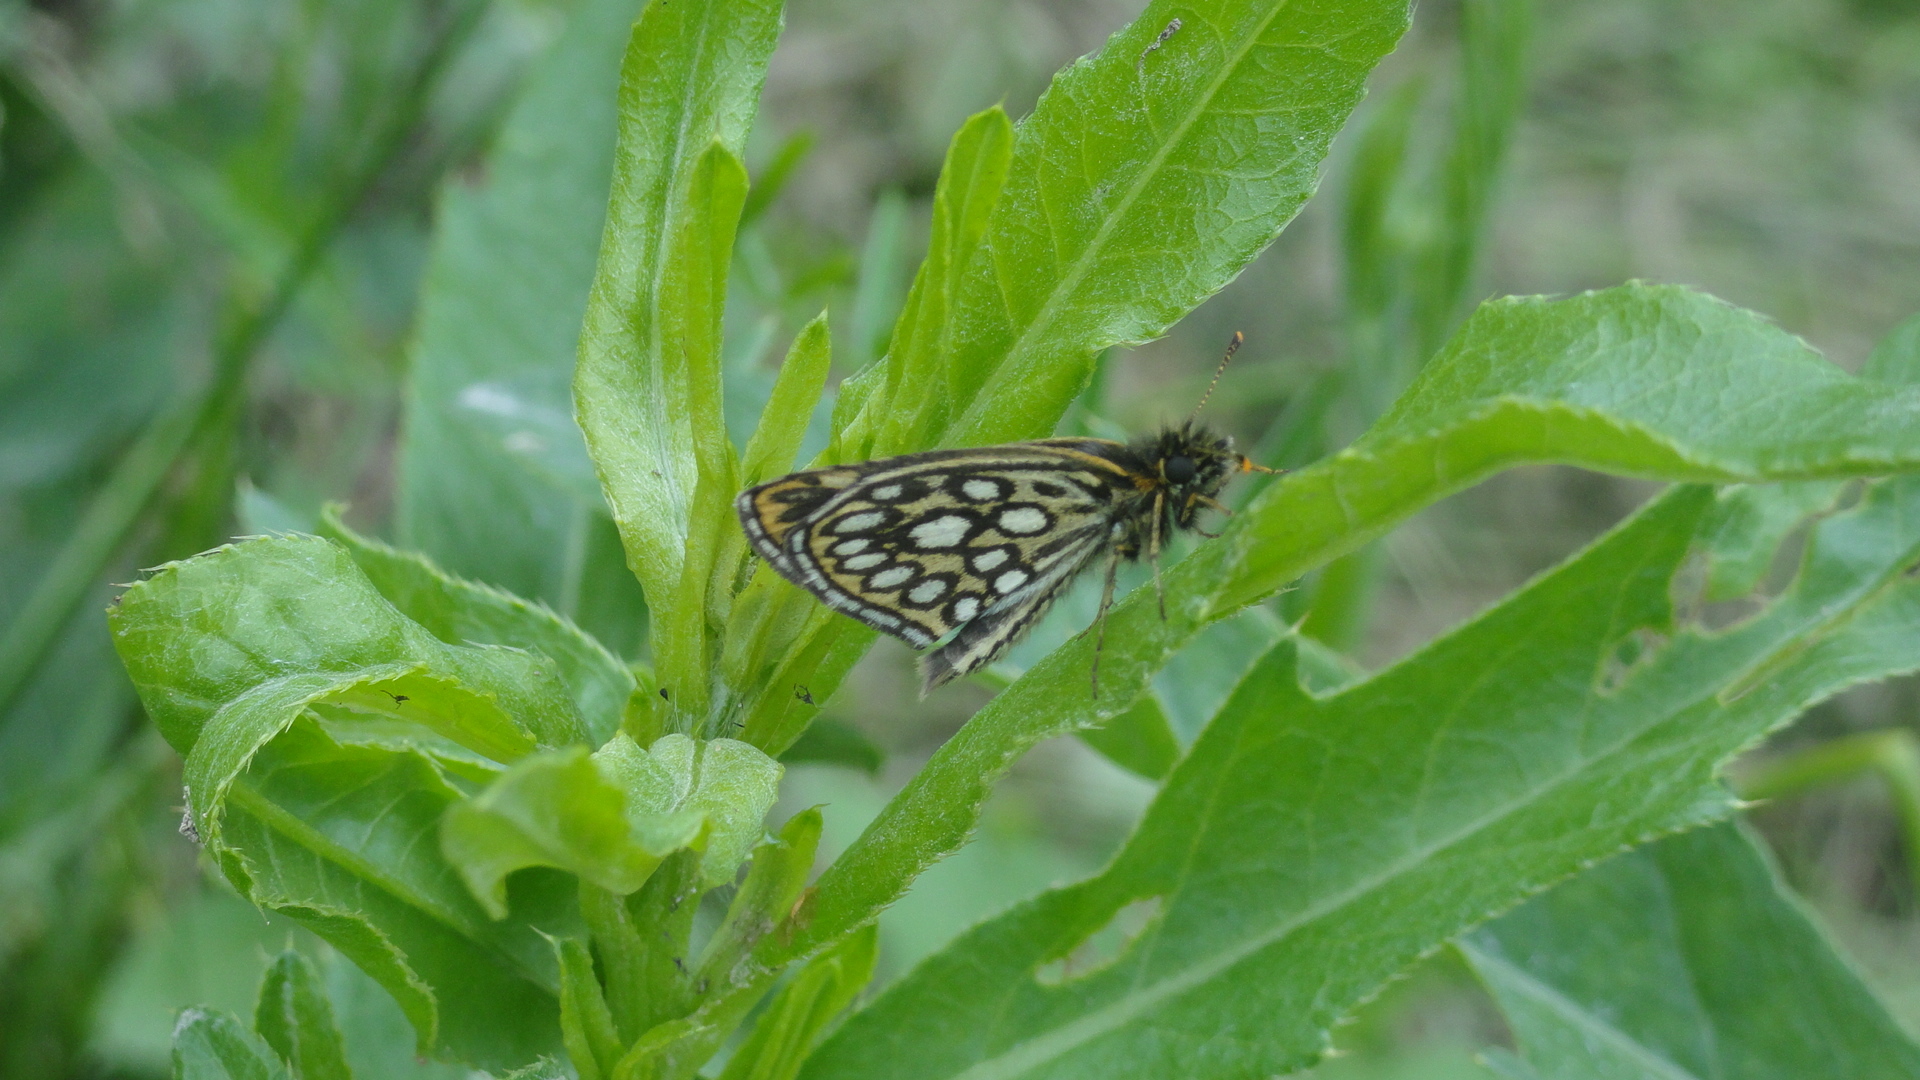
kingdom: Animalia
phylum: Arthropoda
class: Insecta
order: Lepidoptera
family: Hesperiidae
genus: Heteropterus
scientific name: Heteropterus morpheus
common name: Large chequered skipper
